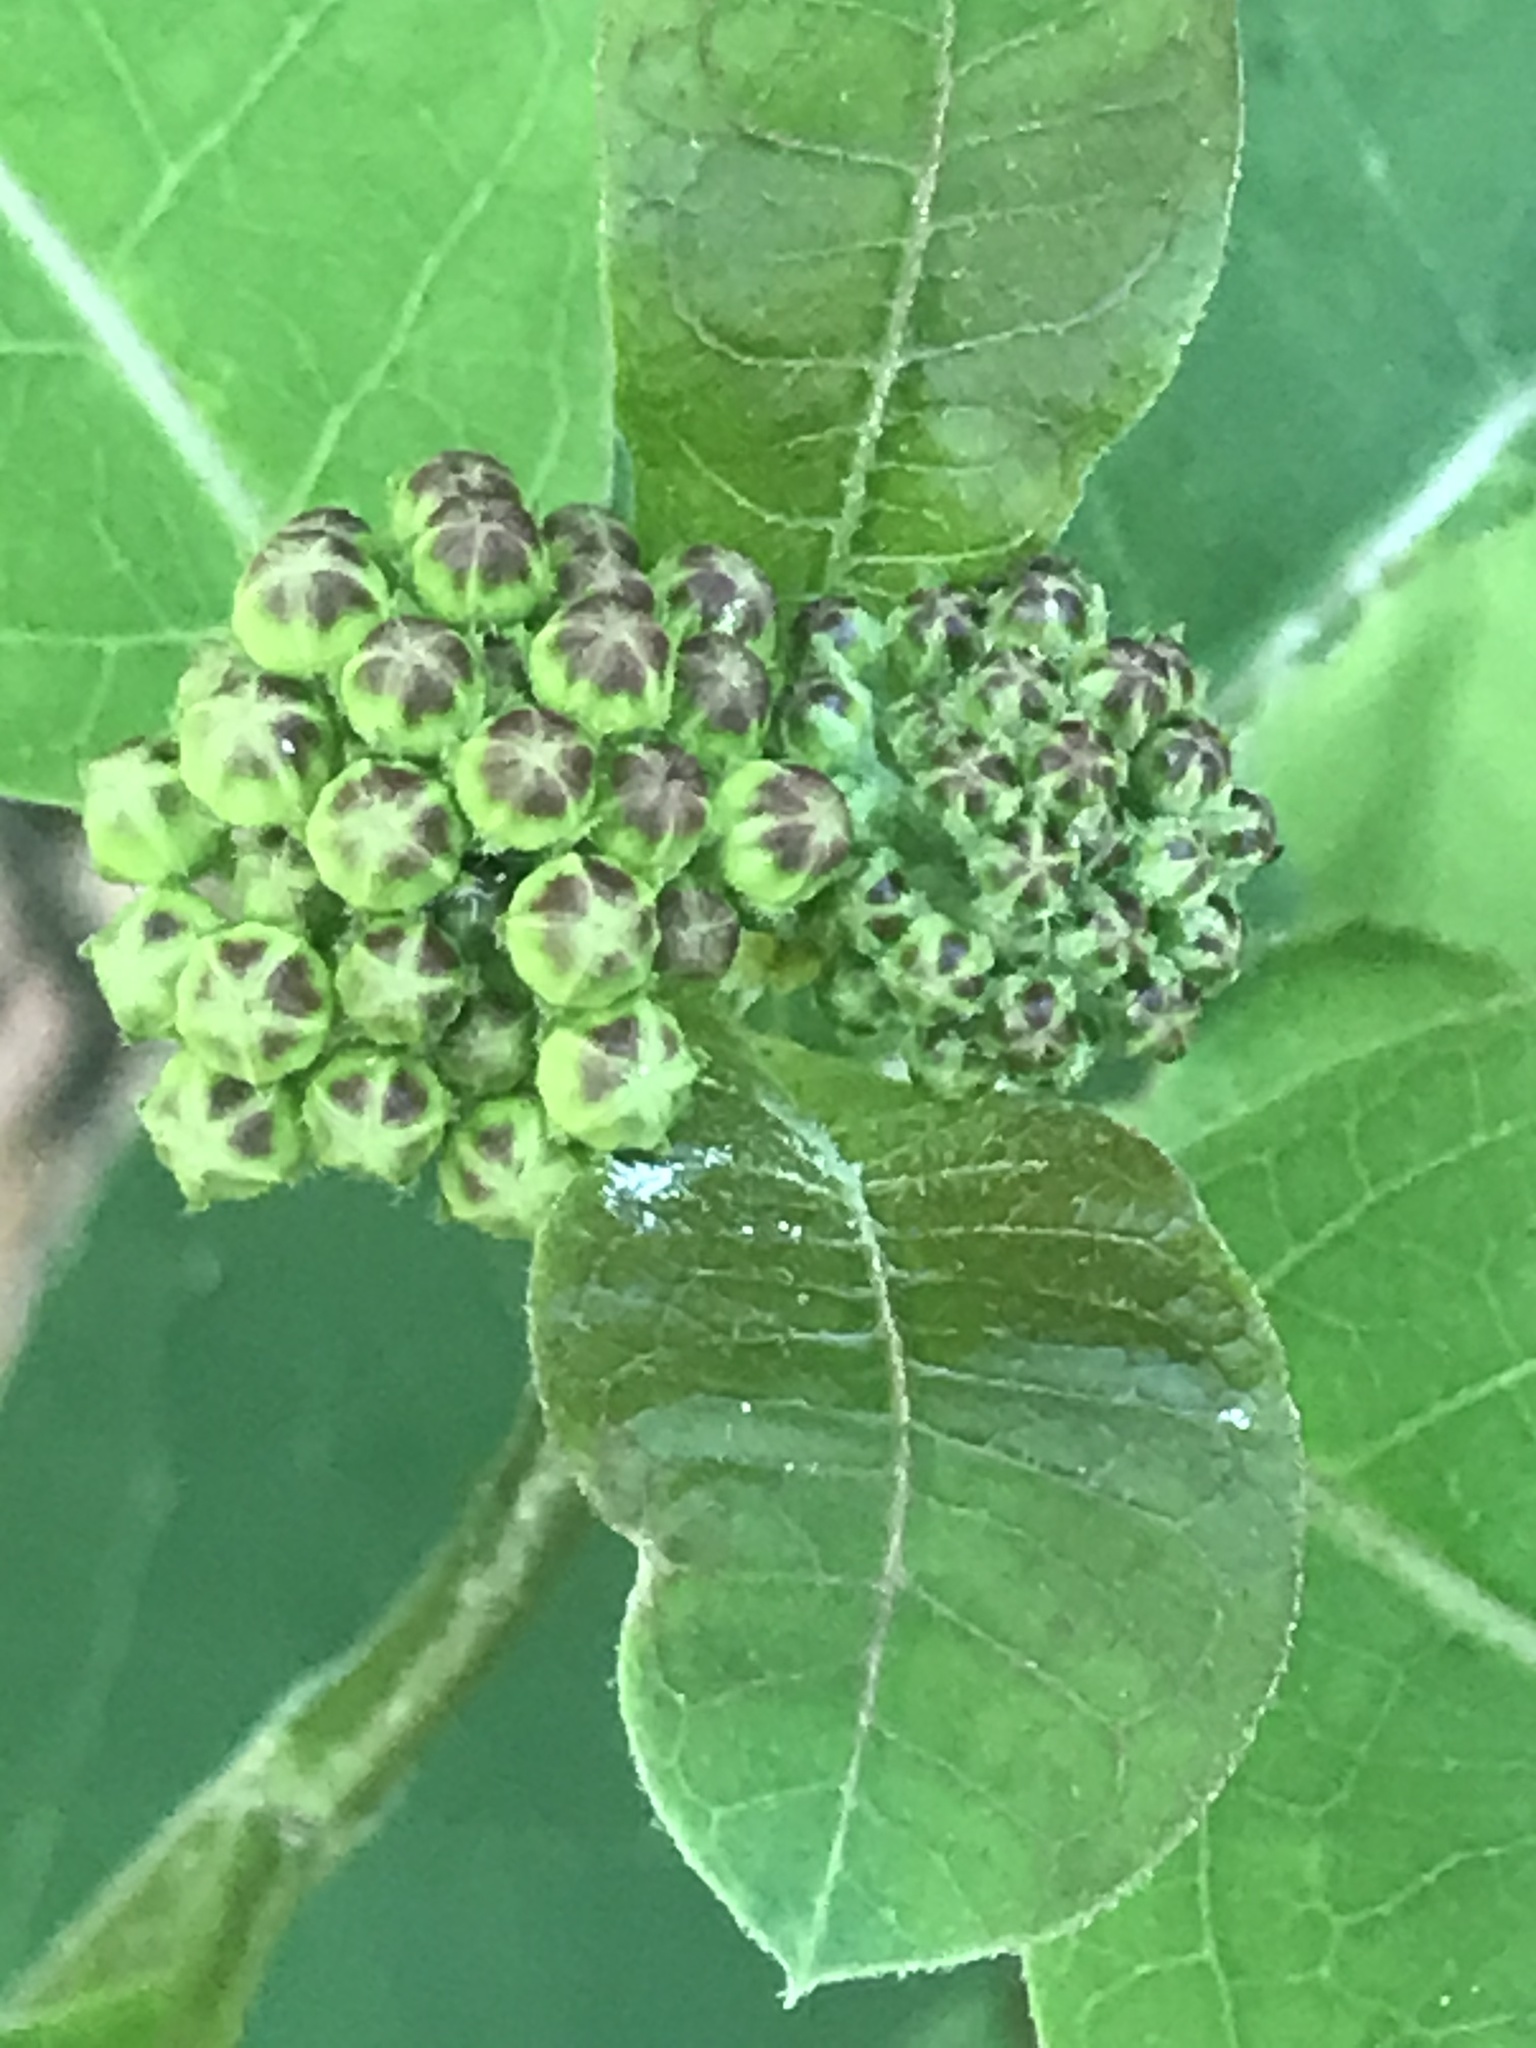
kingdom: Plantae
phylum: Tracheophyta
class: Magnoliopsida
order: Gentianales
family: Apocynaceae
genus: Asclepias
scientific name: Asclepias variegata
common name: Variegated milkweed
